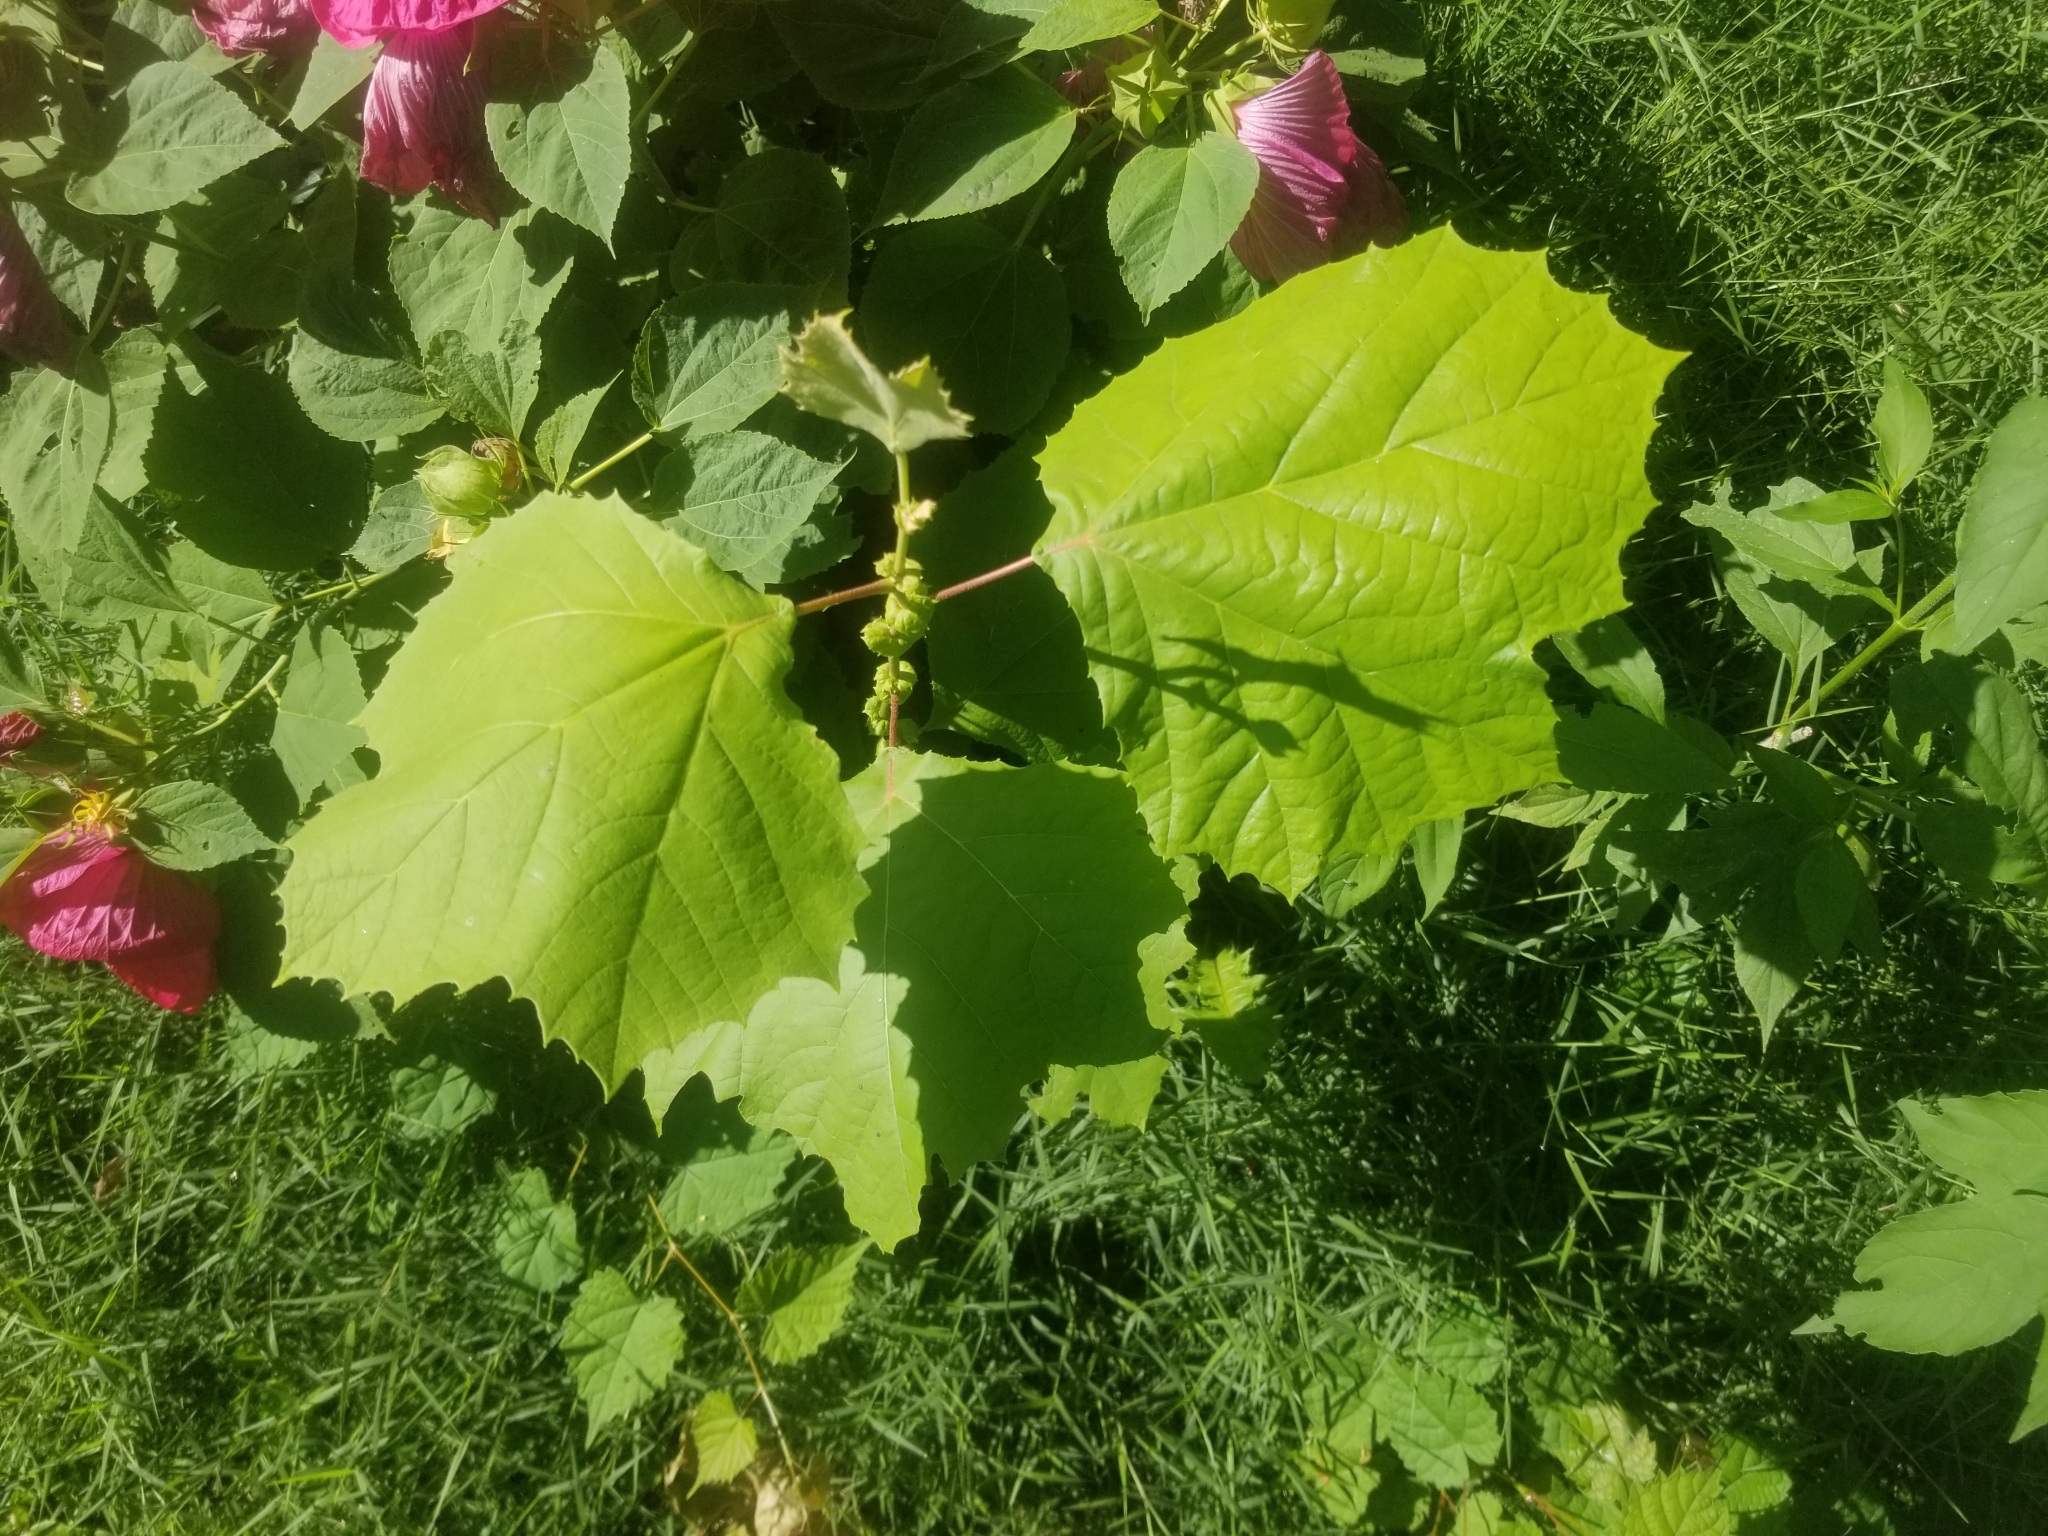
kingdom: Plantae
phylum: Tracheophyta
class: Magnoliopsida
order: Proteales
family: Platanaceae
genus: Platanus
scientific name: Platanus occidentalis
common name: American sycamore
